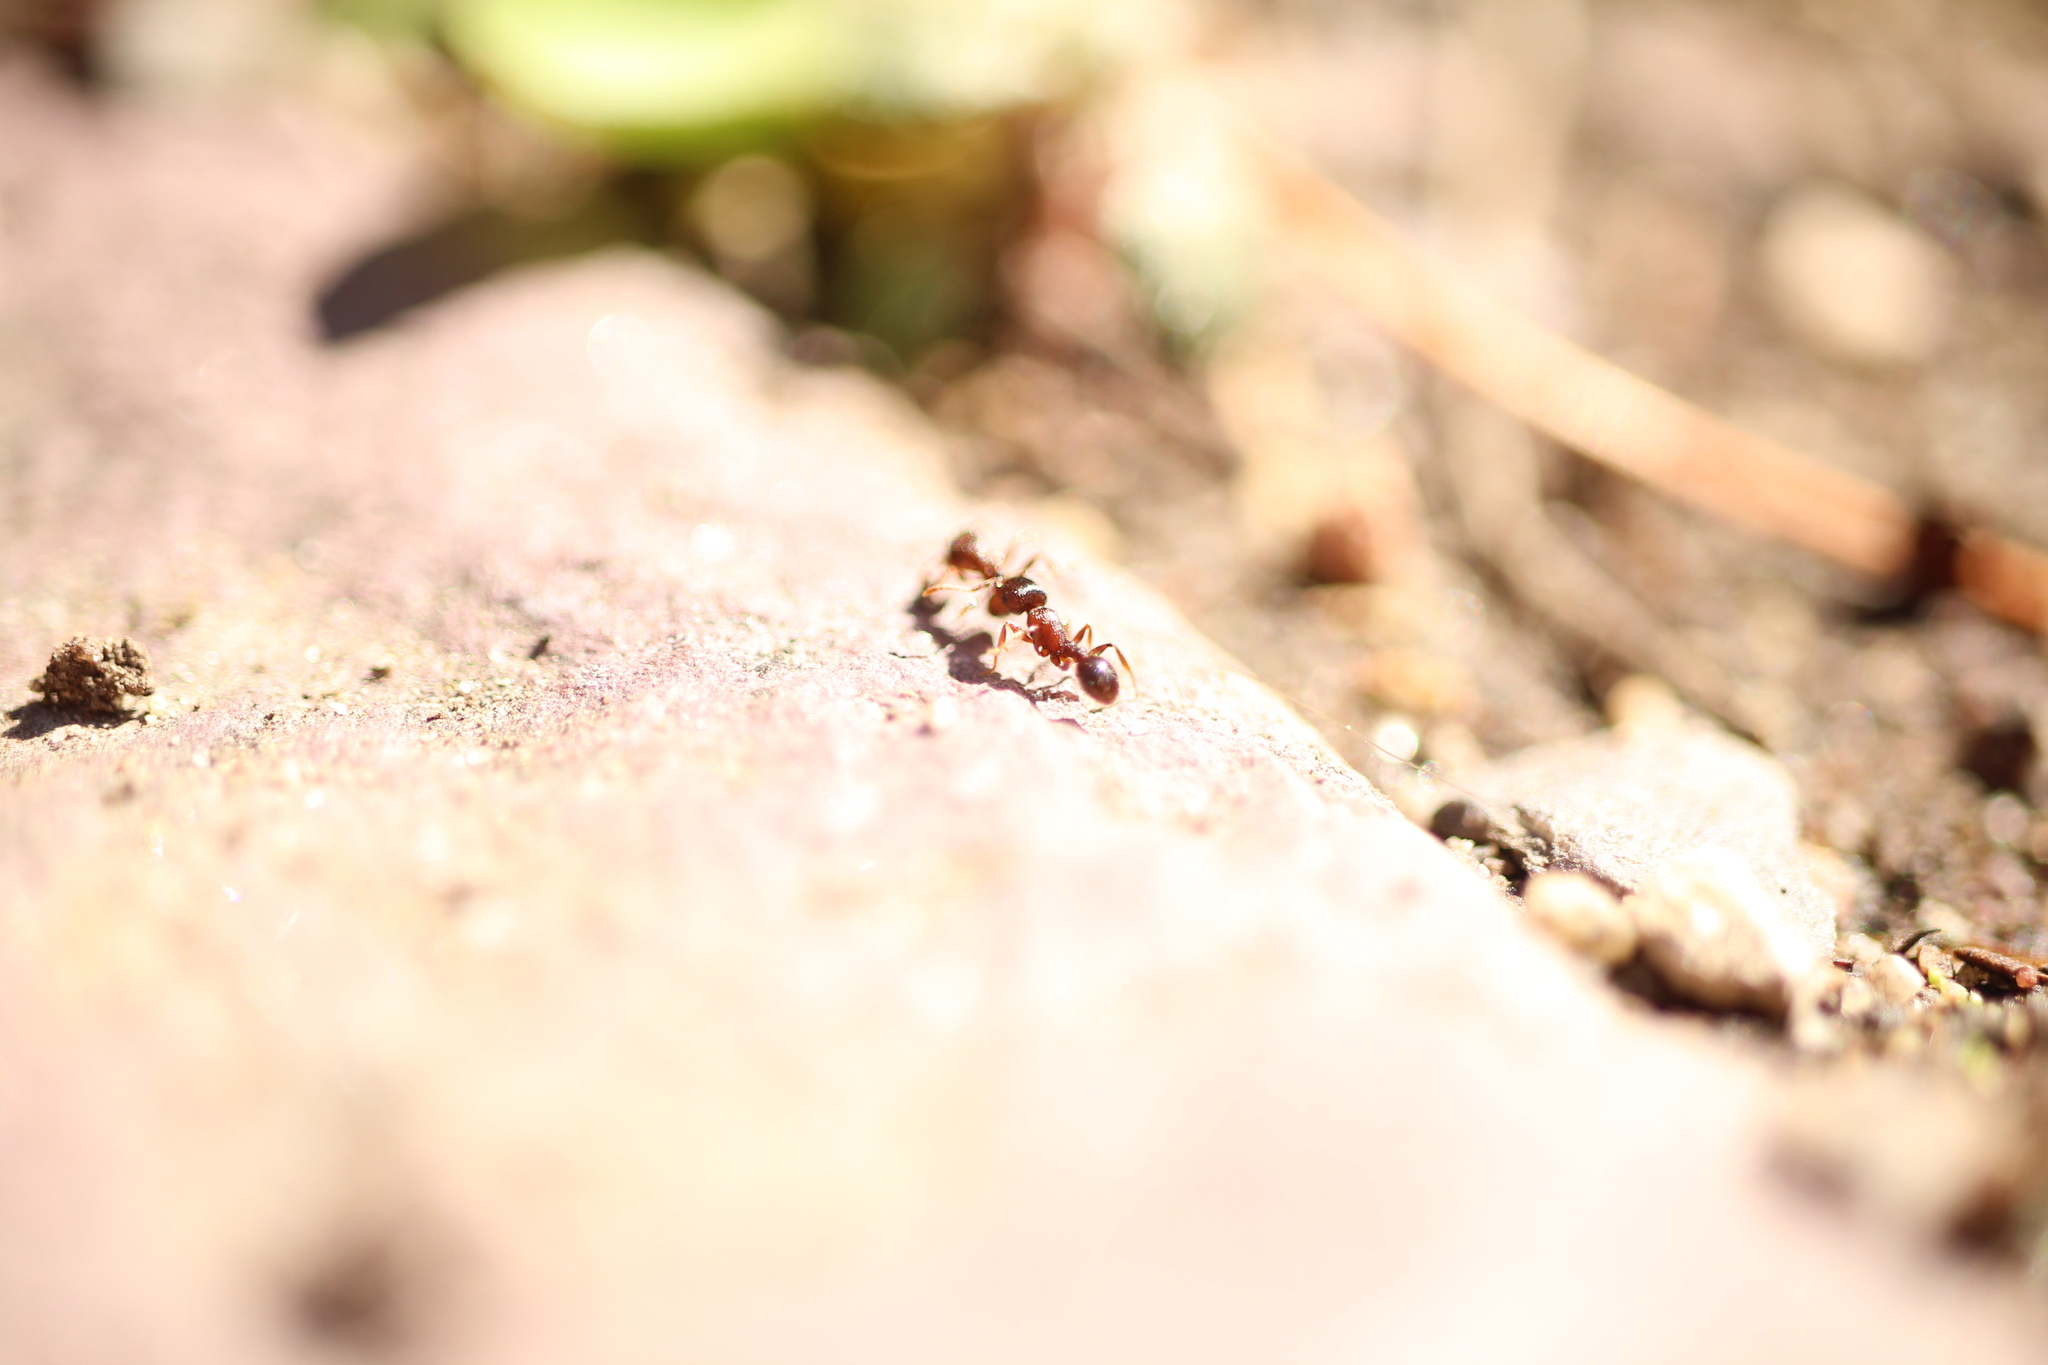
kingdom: Animalia
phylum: Arthropoda
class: Insecta
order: Hymenoptera
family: Formicidae
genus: Tetramorium
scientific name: Tetramorium immigrans
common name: Pavement ant
